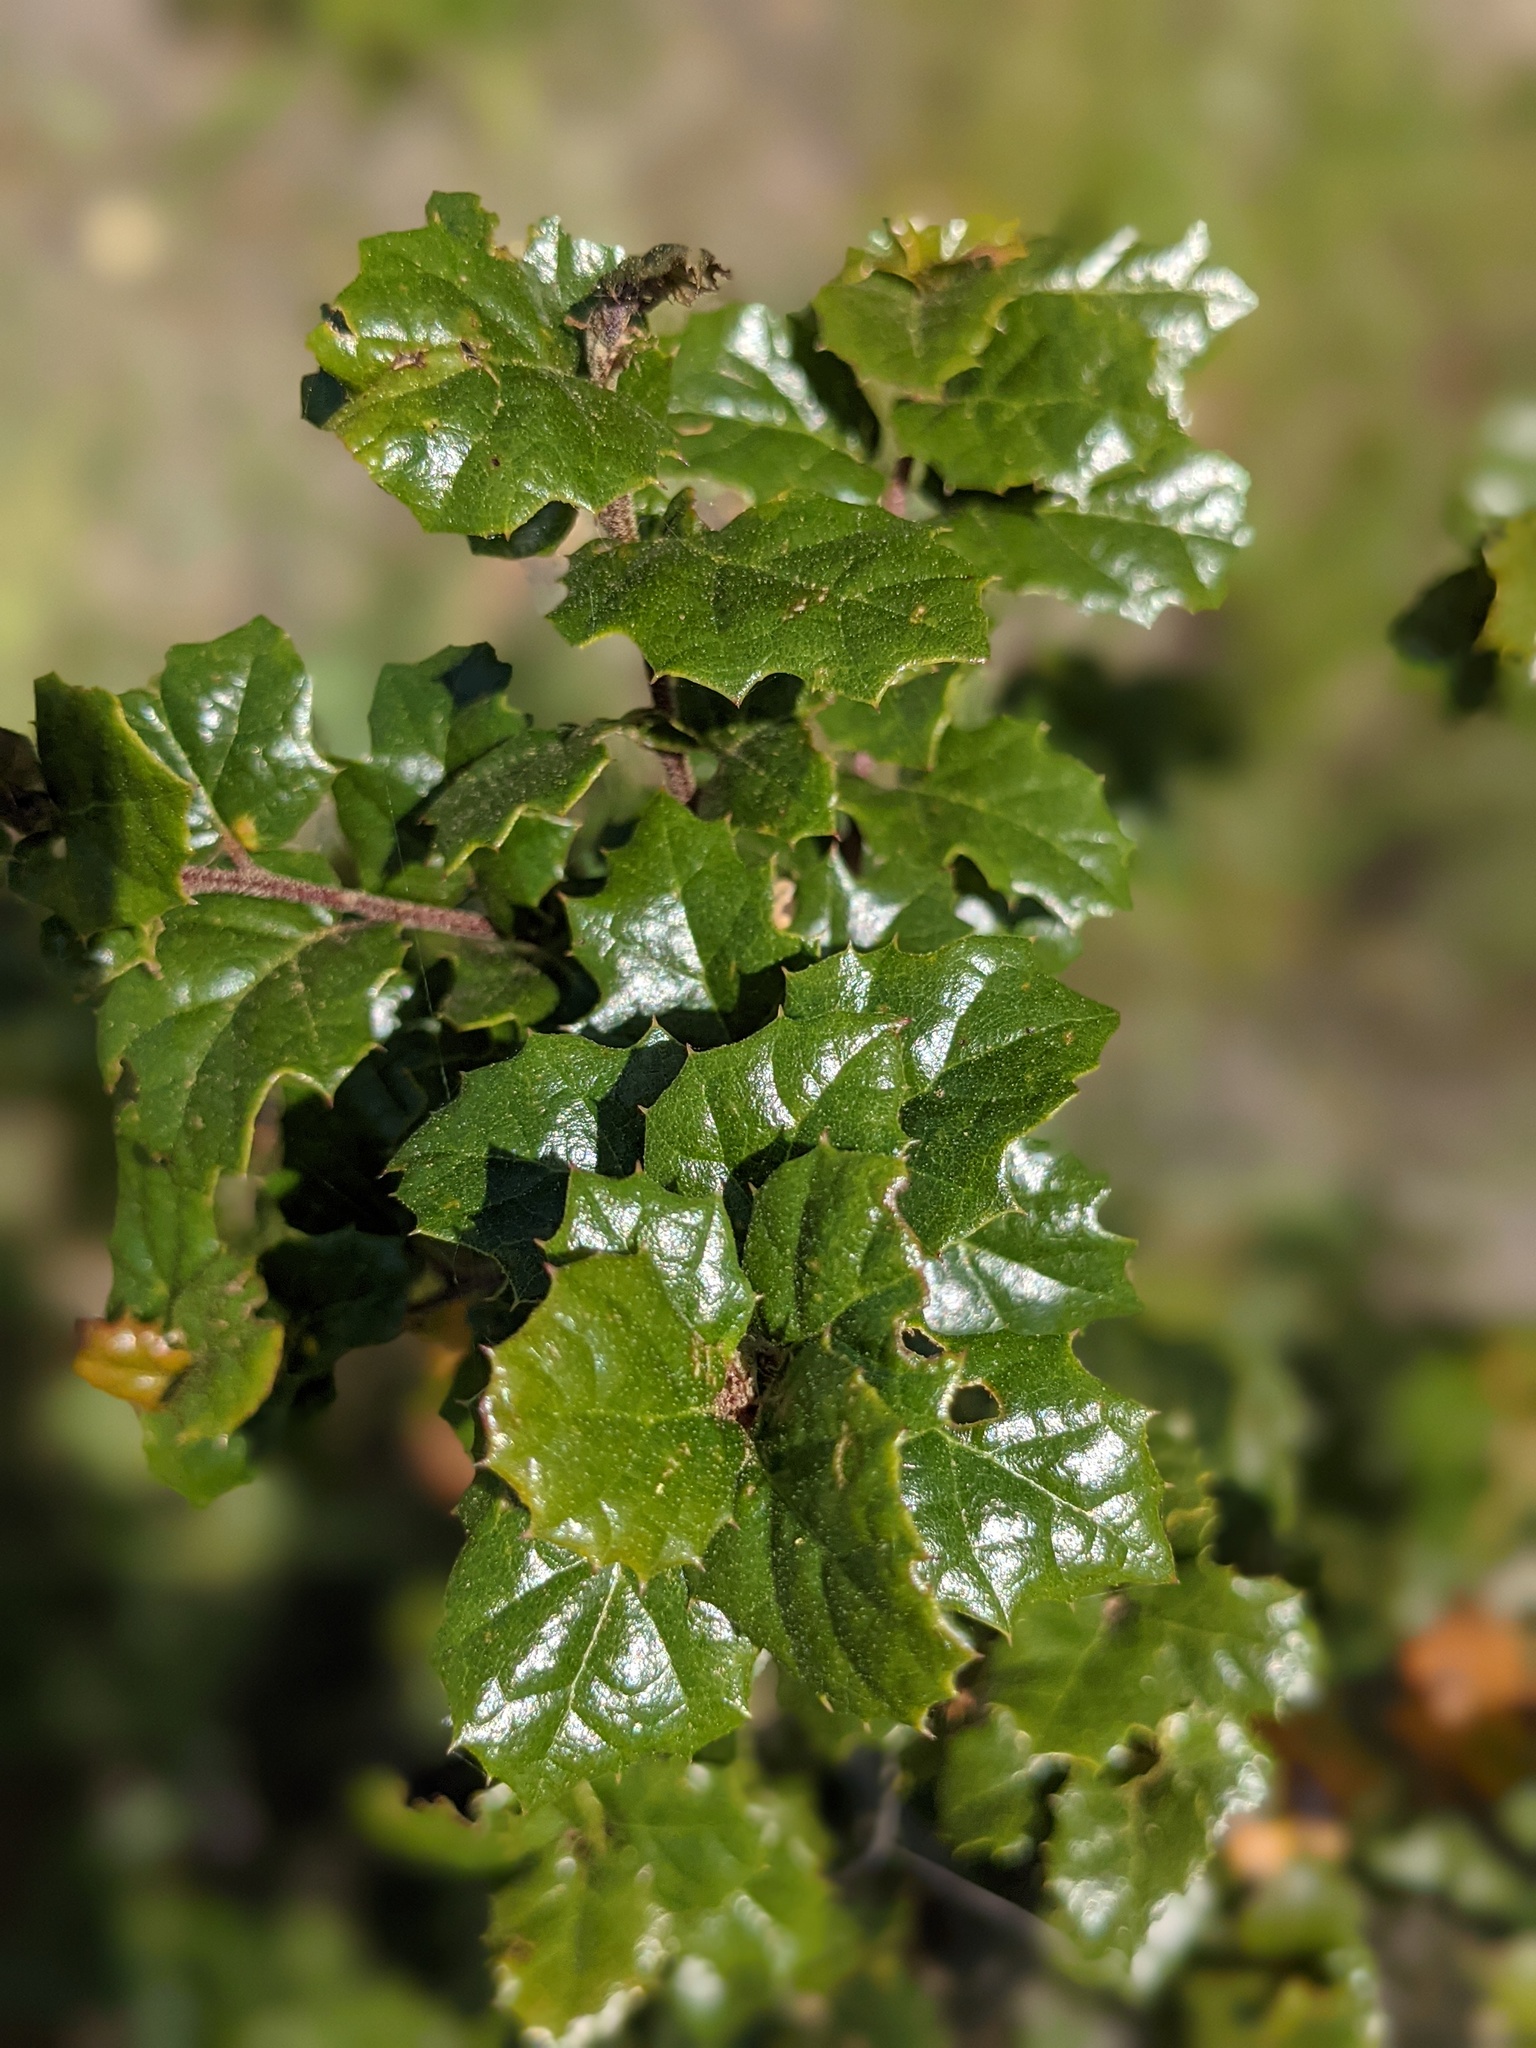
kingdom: Plantae
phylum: Tracheophyta
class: Magnoliopsida
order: Fagales
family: Fagaceae
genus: Quercus
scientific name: Quercus agrifolia
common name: California live oak
